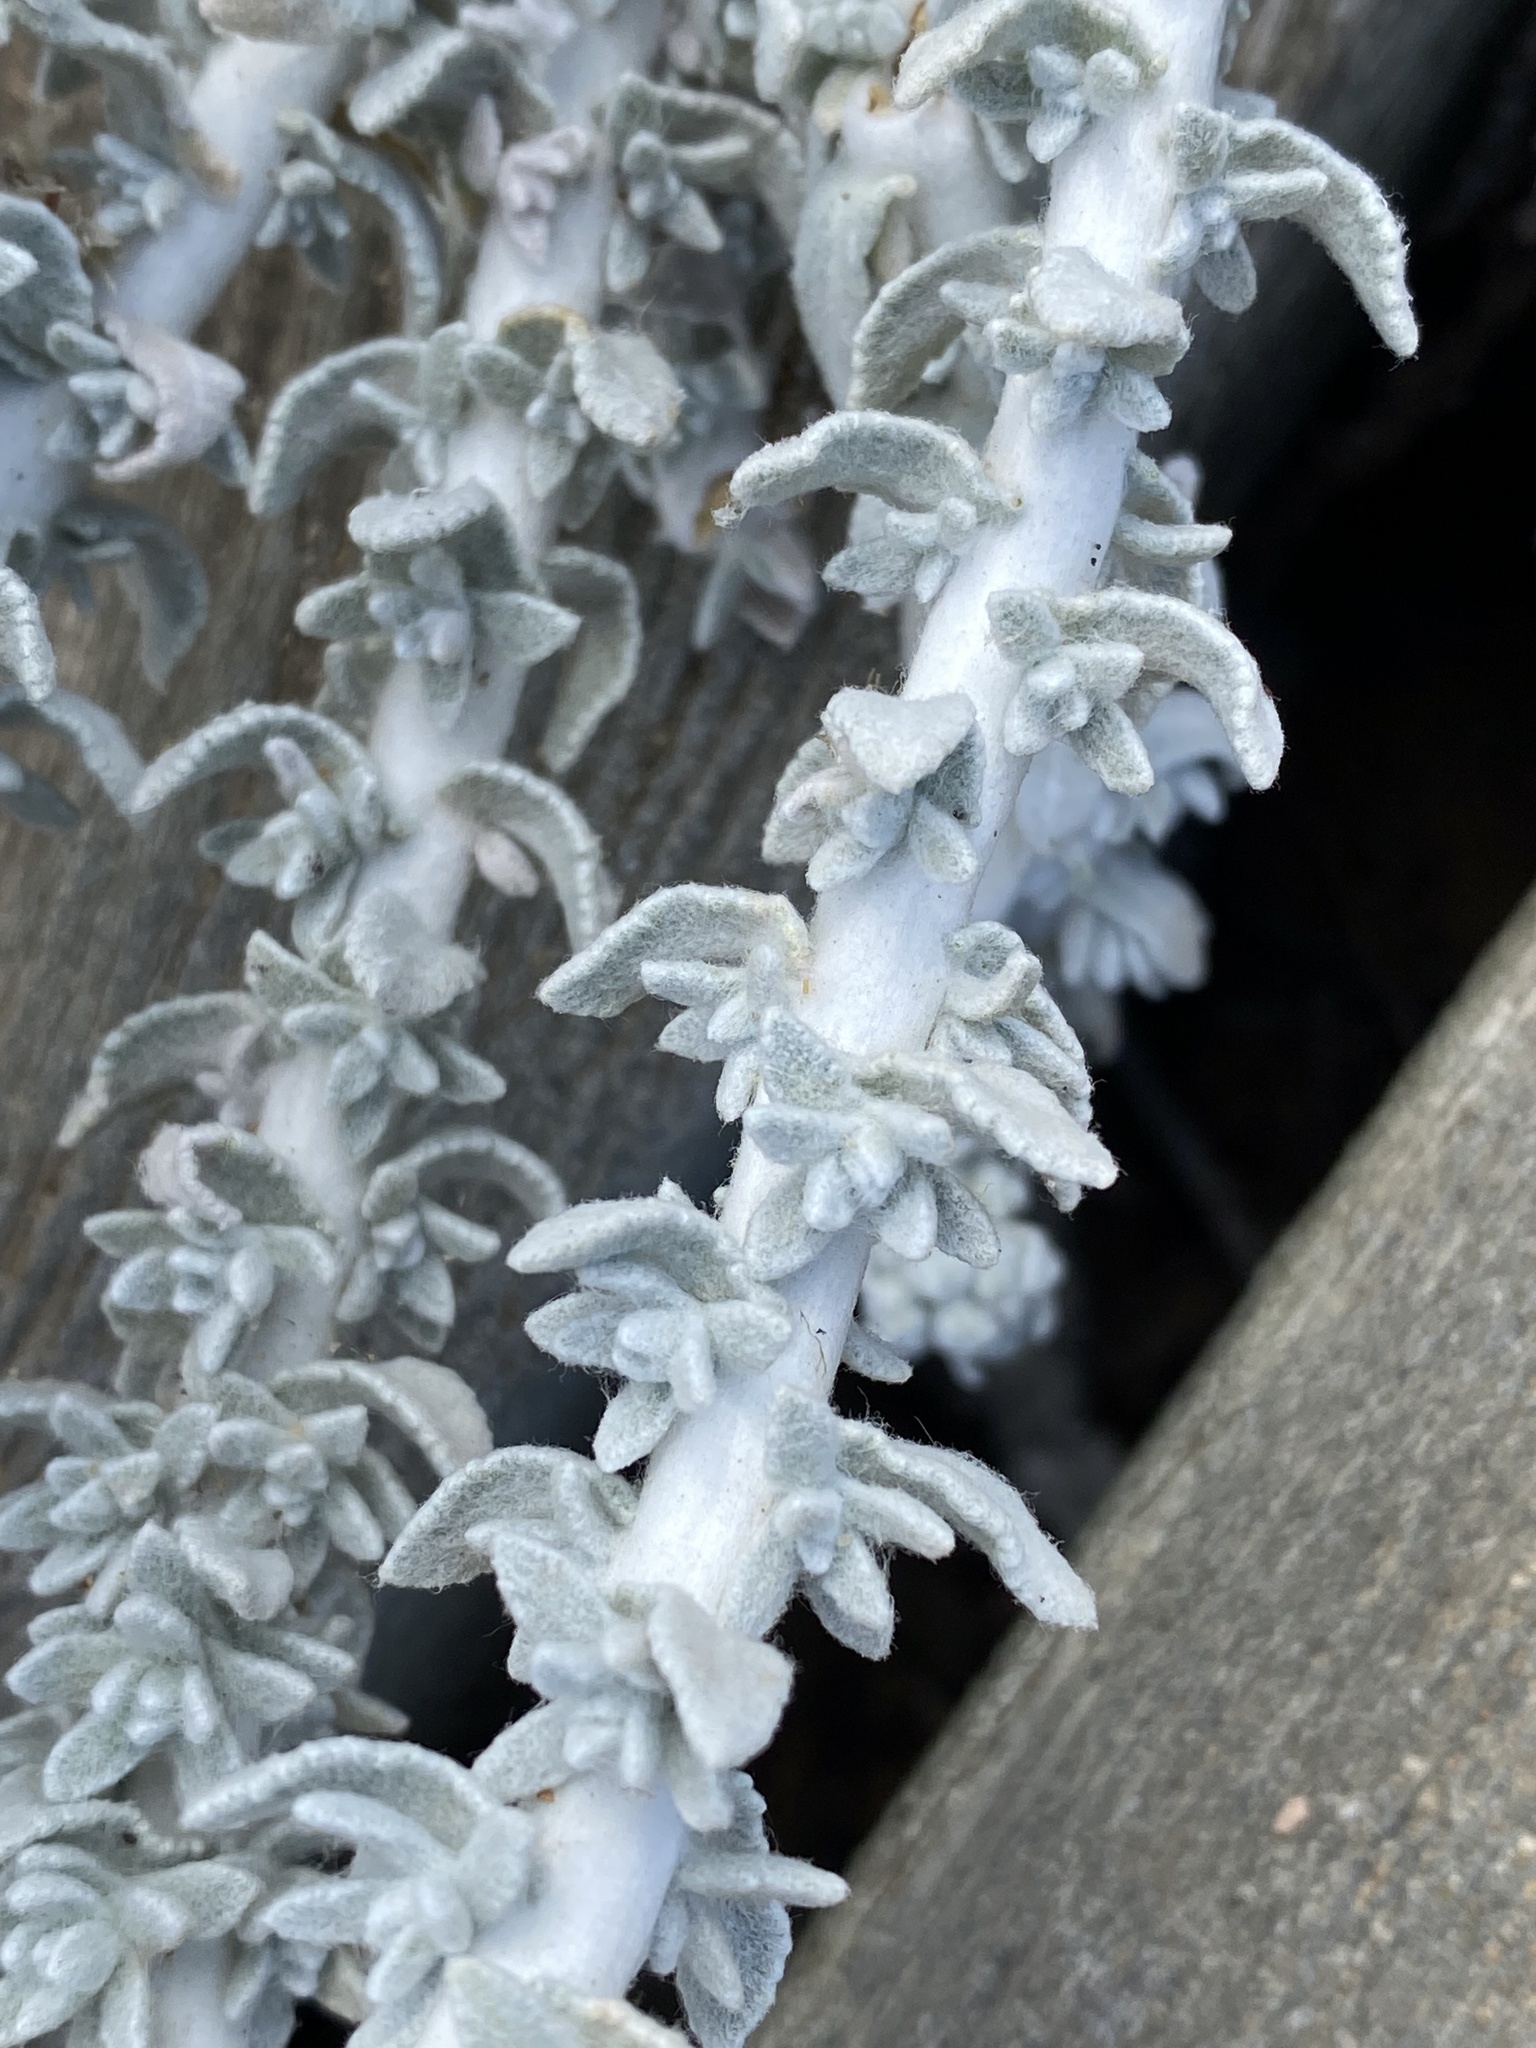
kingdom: Plantae
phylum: Tracheophyta
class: Magnoliopsida
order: Asterales
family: Asteraceae
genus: Achillea
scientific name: Achillea maritima
